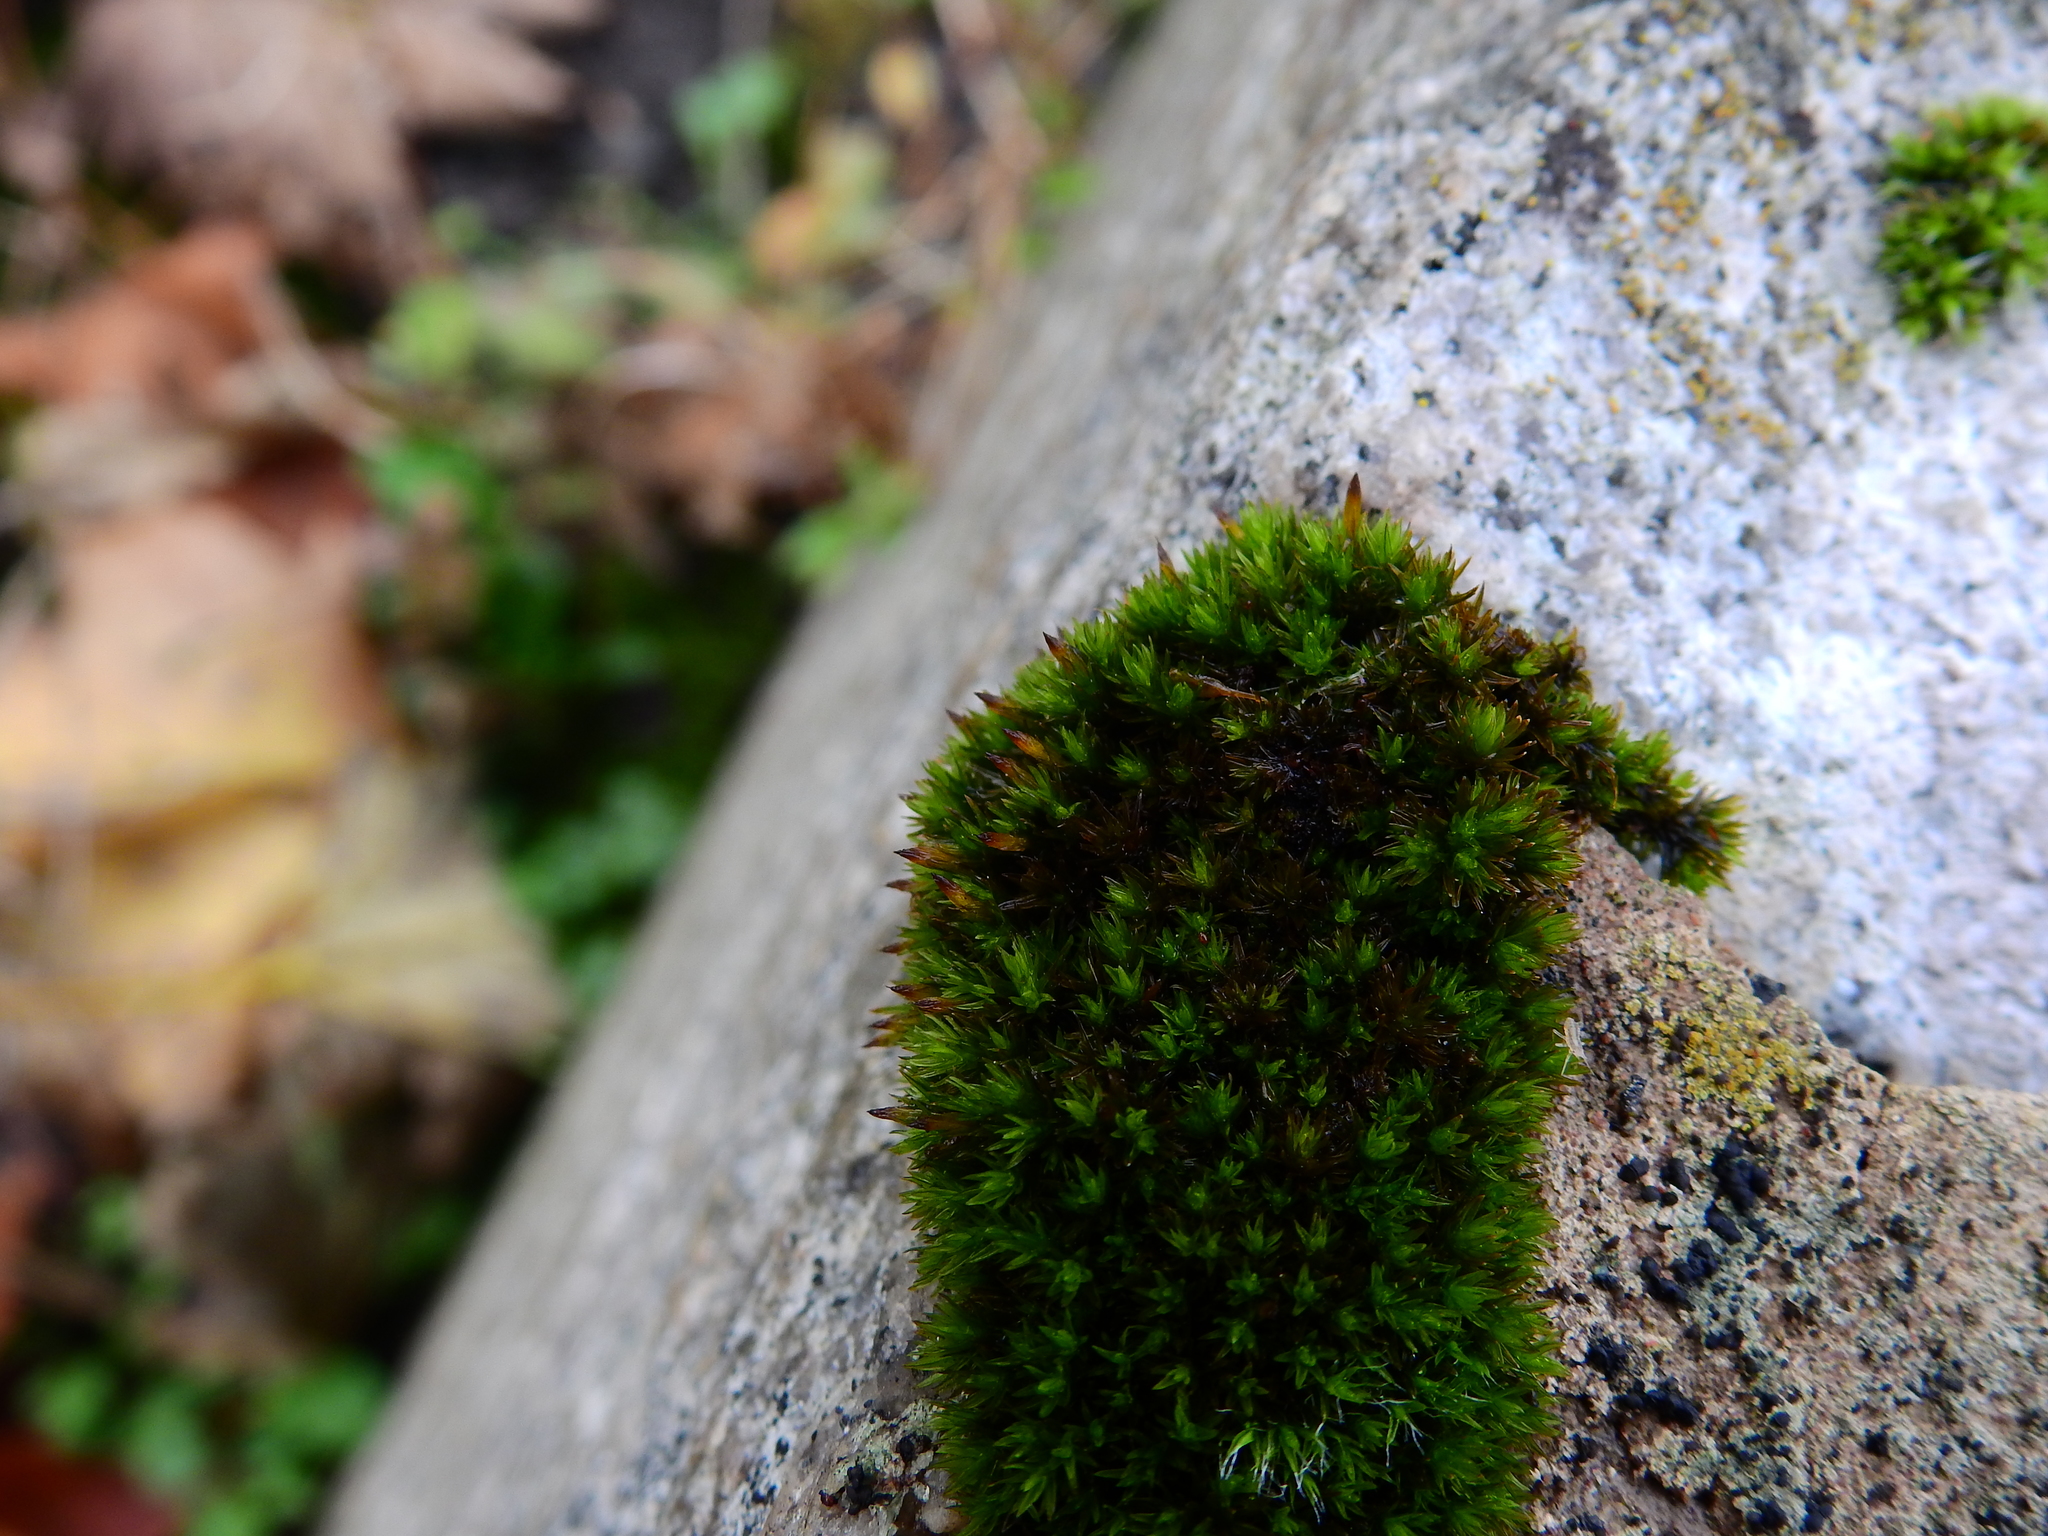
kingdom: Plantae
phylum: Bryophyta
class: Bryopsida
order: Orthotrichales
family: Orthotrichaceae
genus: Orthotrichum
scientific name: Orthotrichum anomalum
